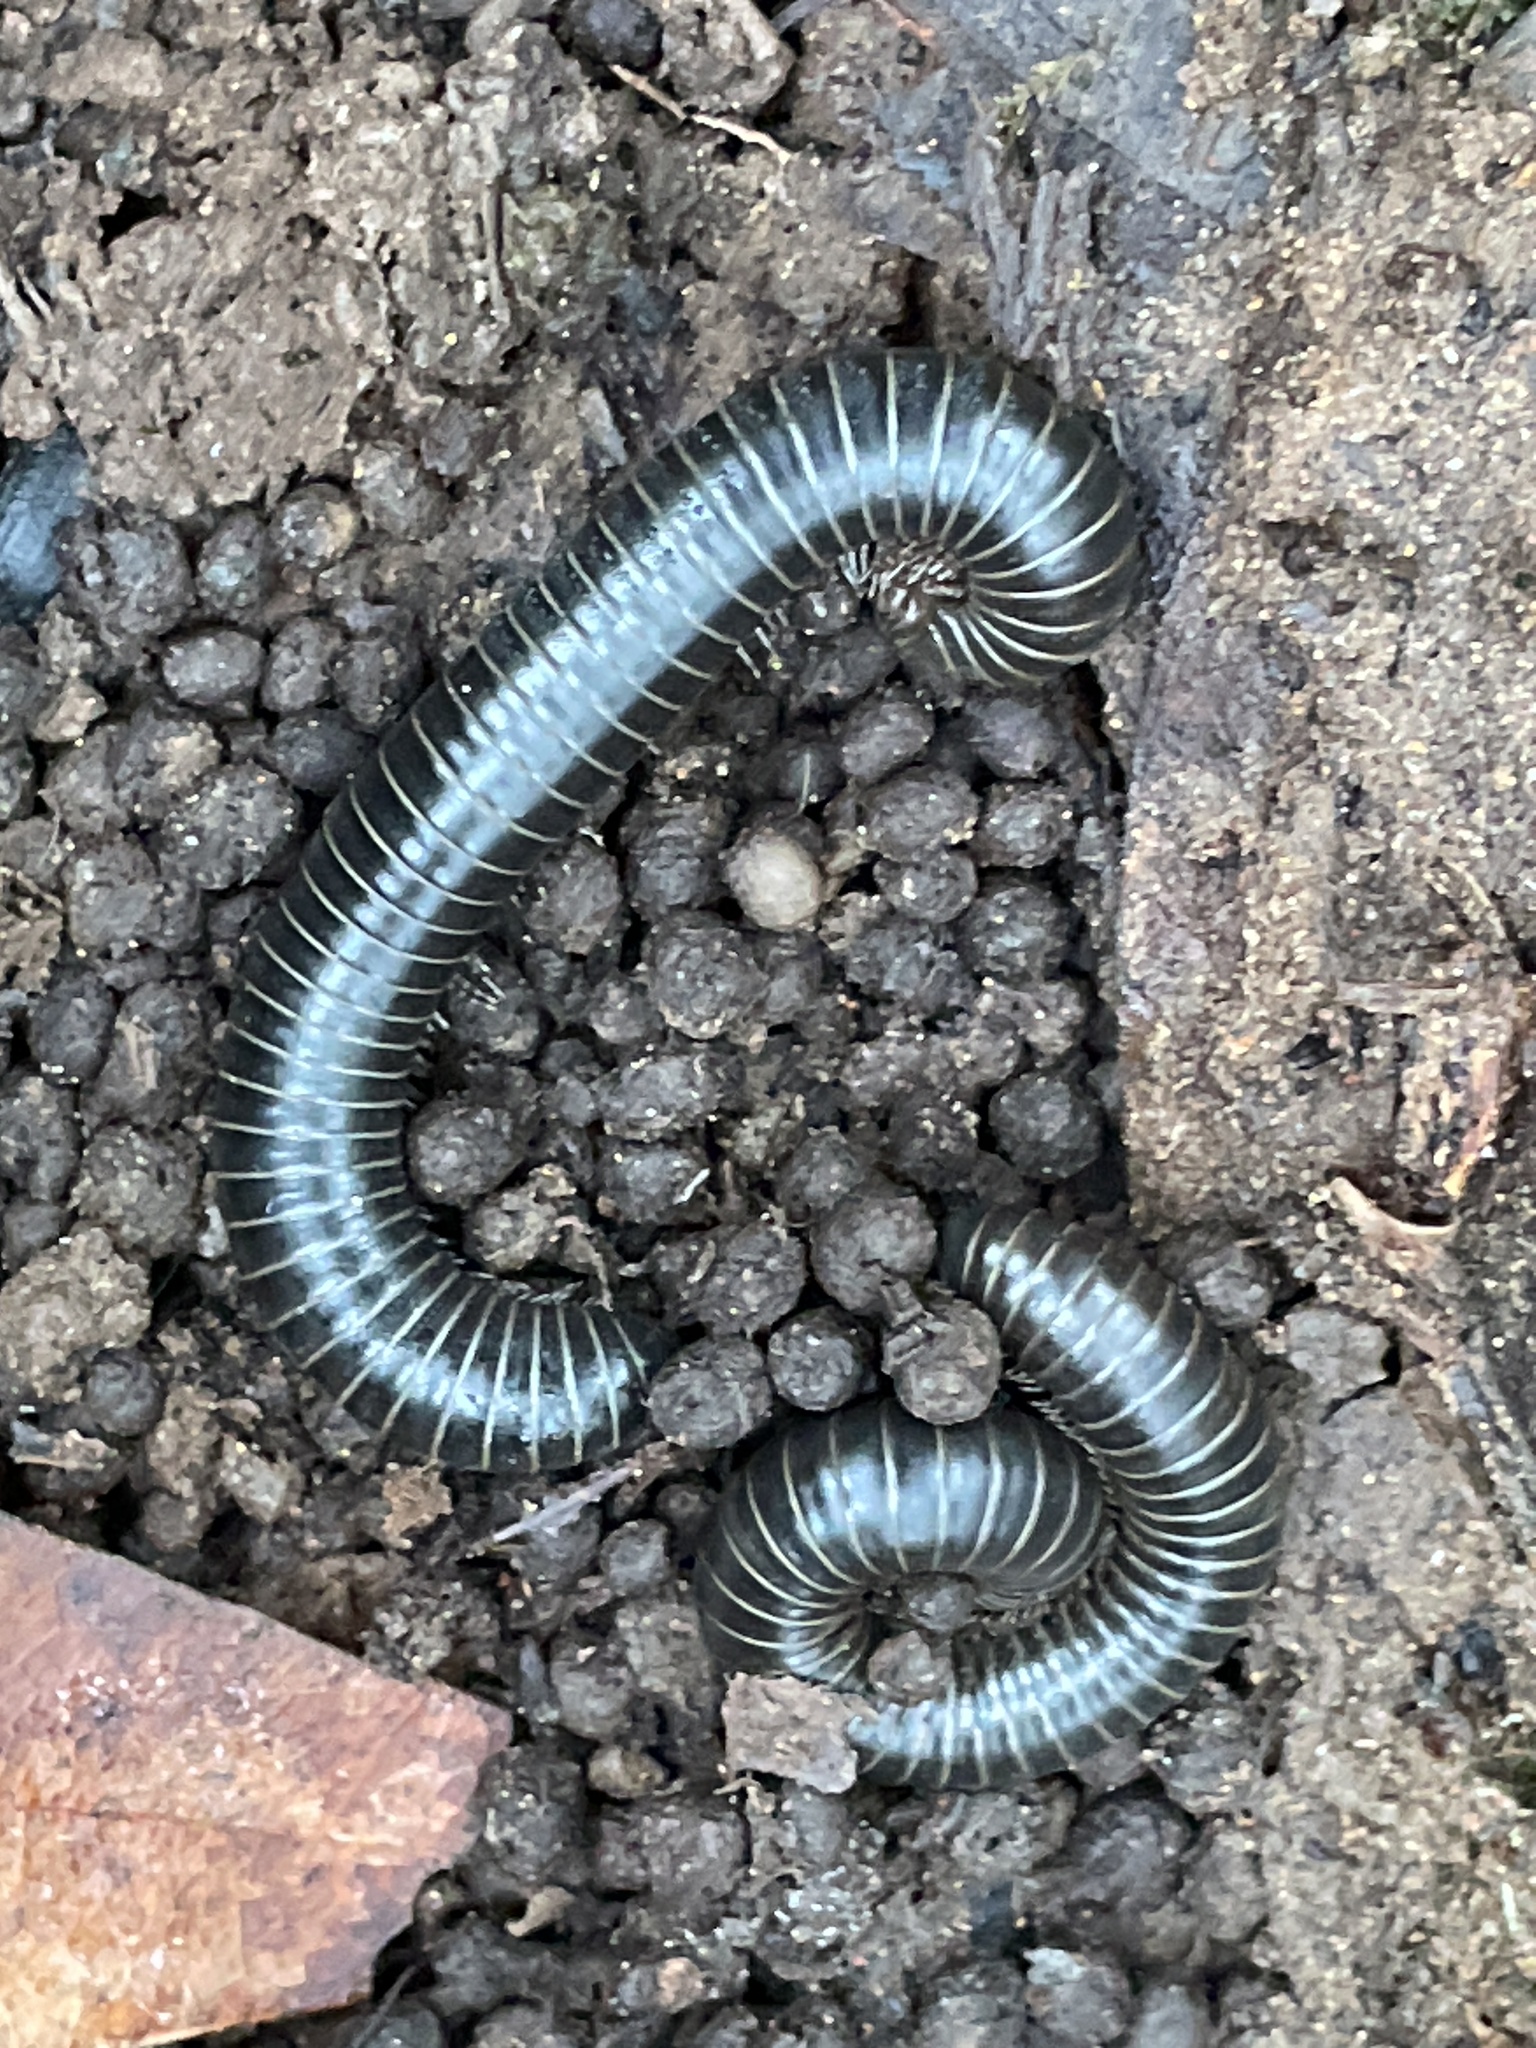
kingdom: Animalia
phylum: Arthropoda
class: Diplopoda
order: Spirobolida
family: Spirobolidae
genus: Tylobolus
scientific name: Tylobolus uncigerus
